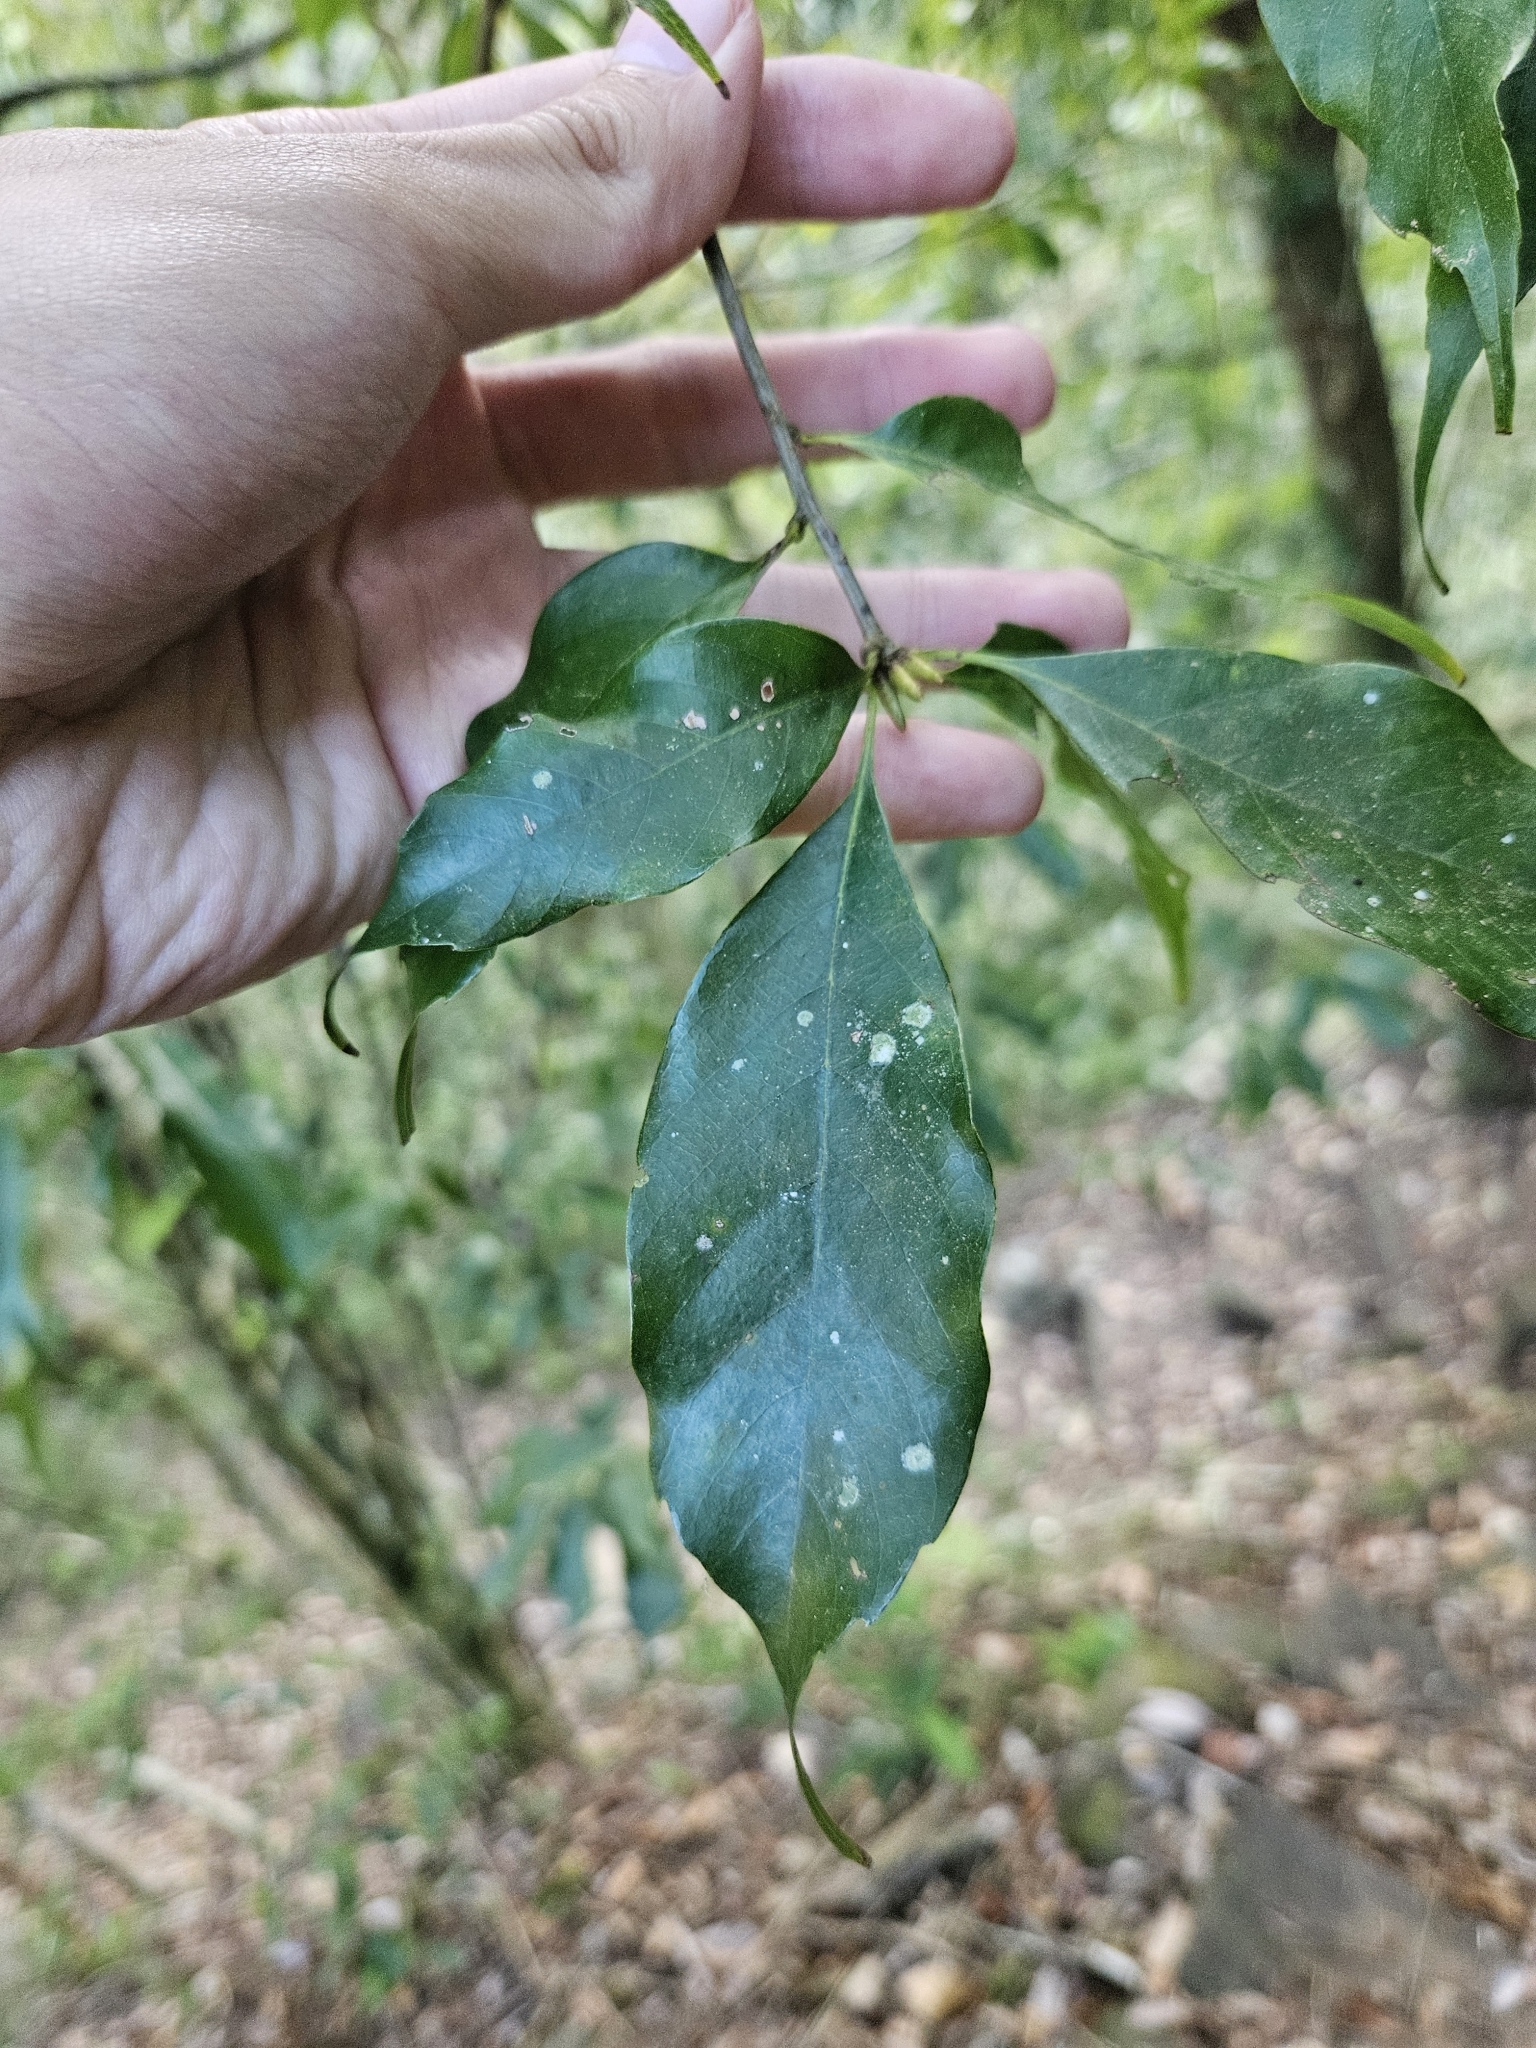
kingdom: Plantae
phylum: Tracheophyta
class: Magnoliopsida
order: Fagales
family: Fagaceae
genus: Quercus
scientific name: Quercus longinux
